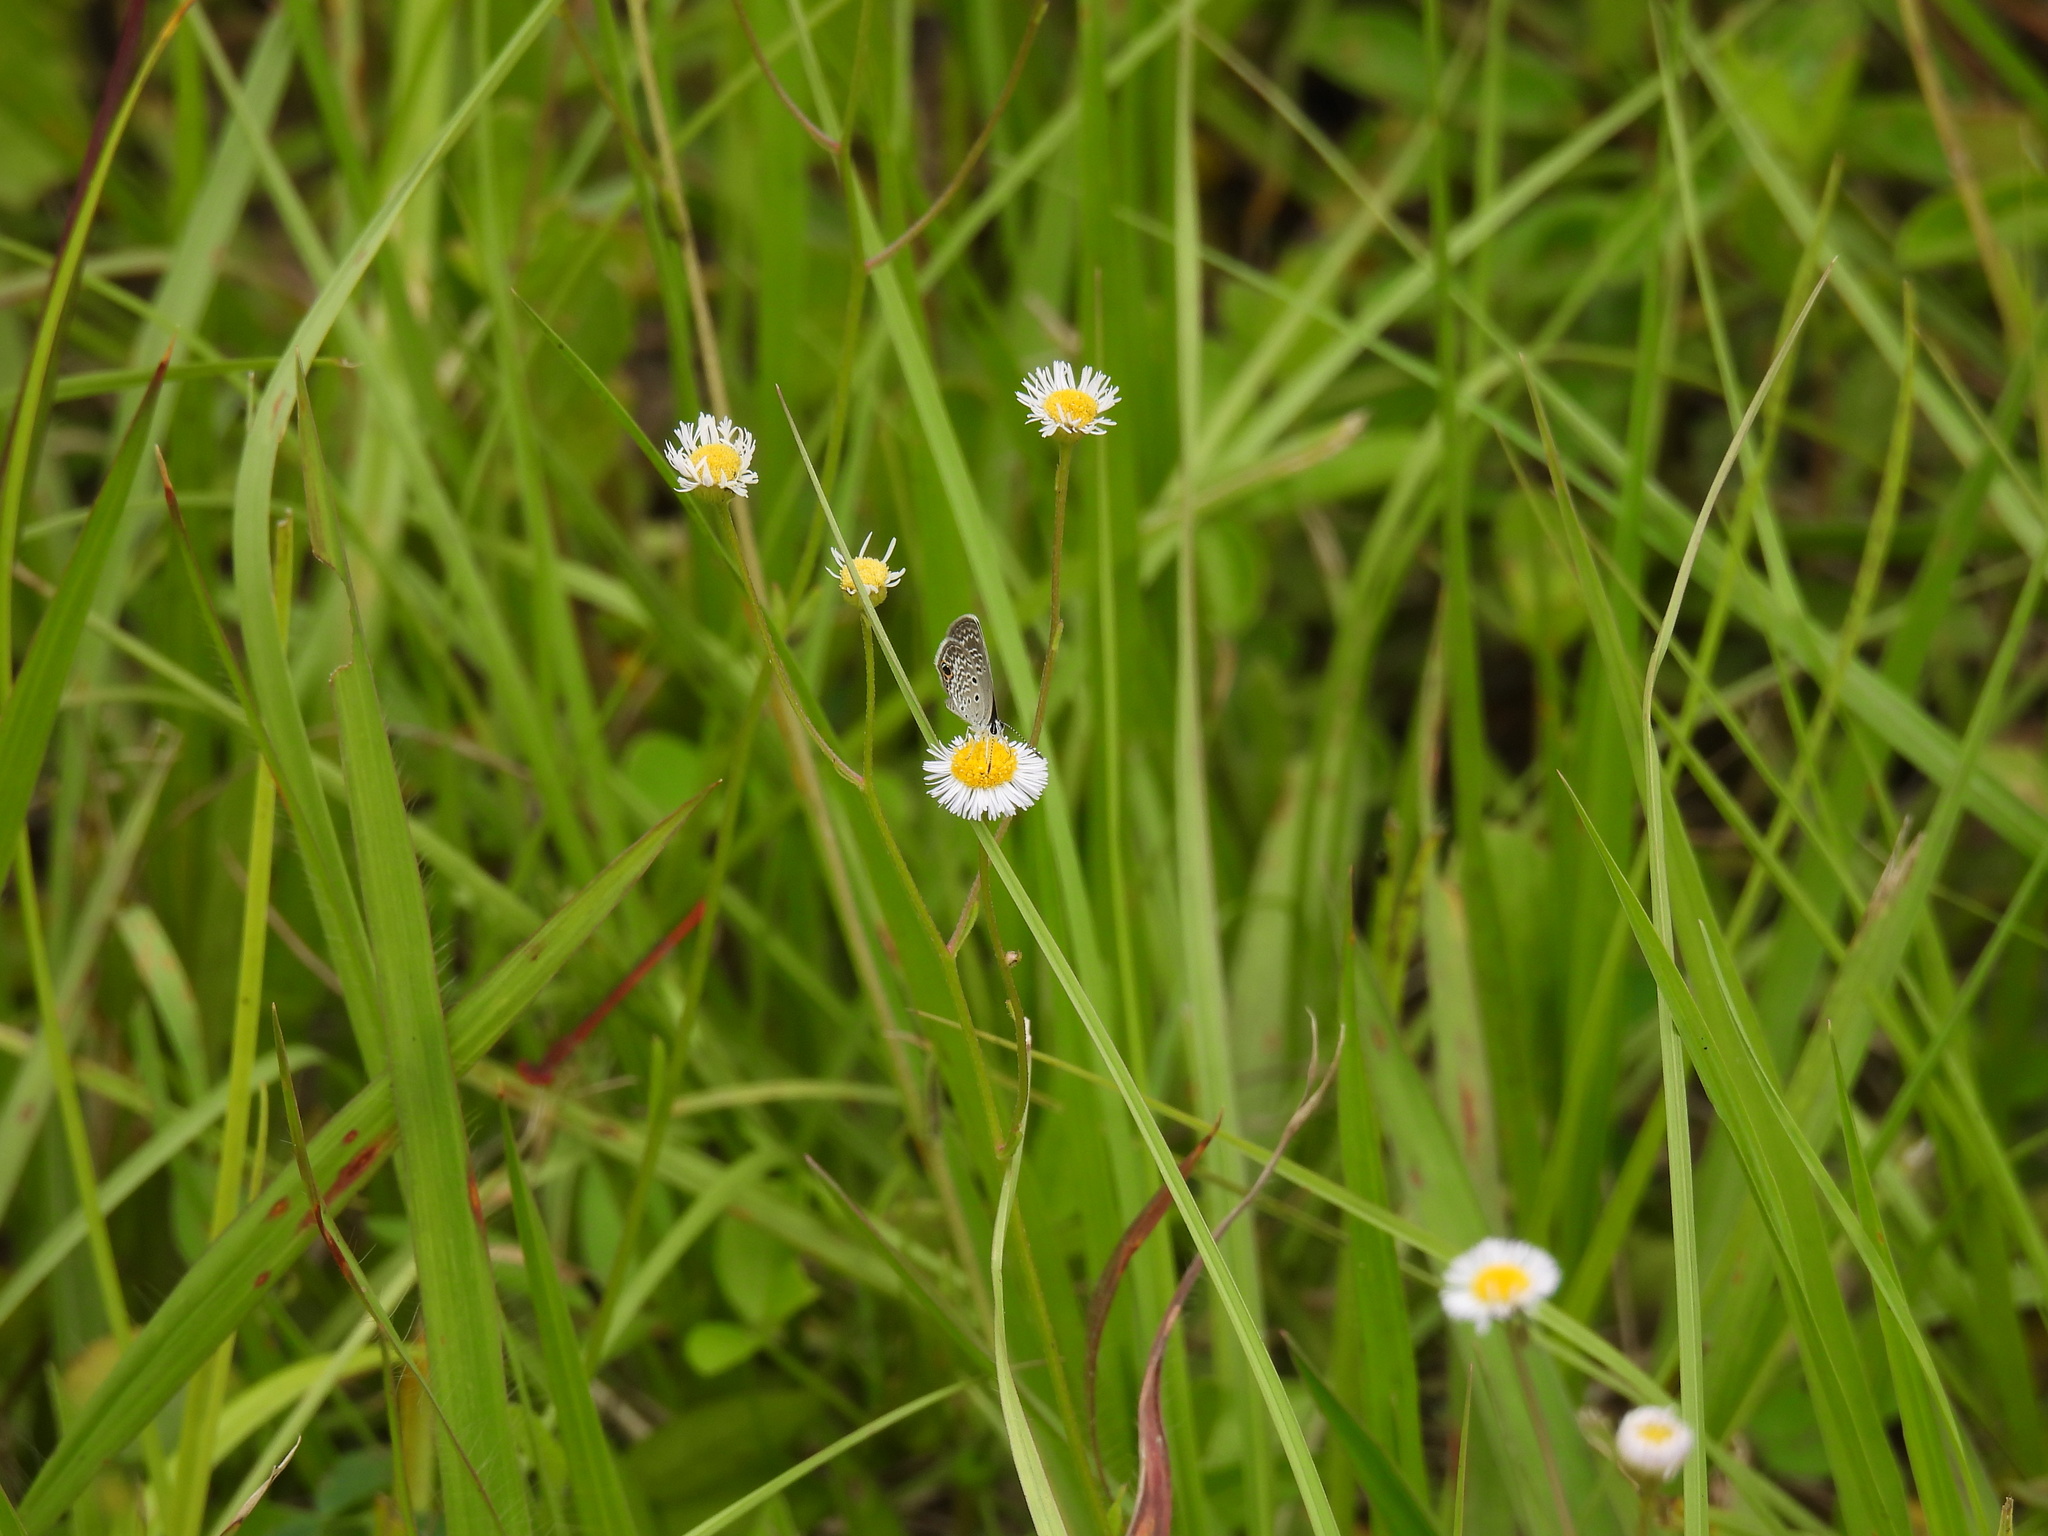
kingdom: Animalia
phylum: Arthropoda
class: Insecta
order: Lepidoptera
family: Lycaenidae
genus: Hemiargus
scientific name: Hemiargus ceraunus
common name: Ceraunus blue
